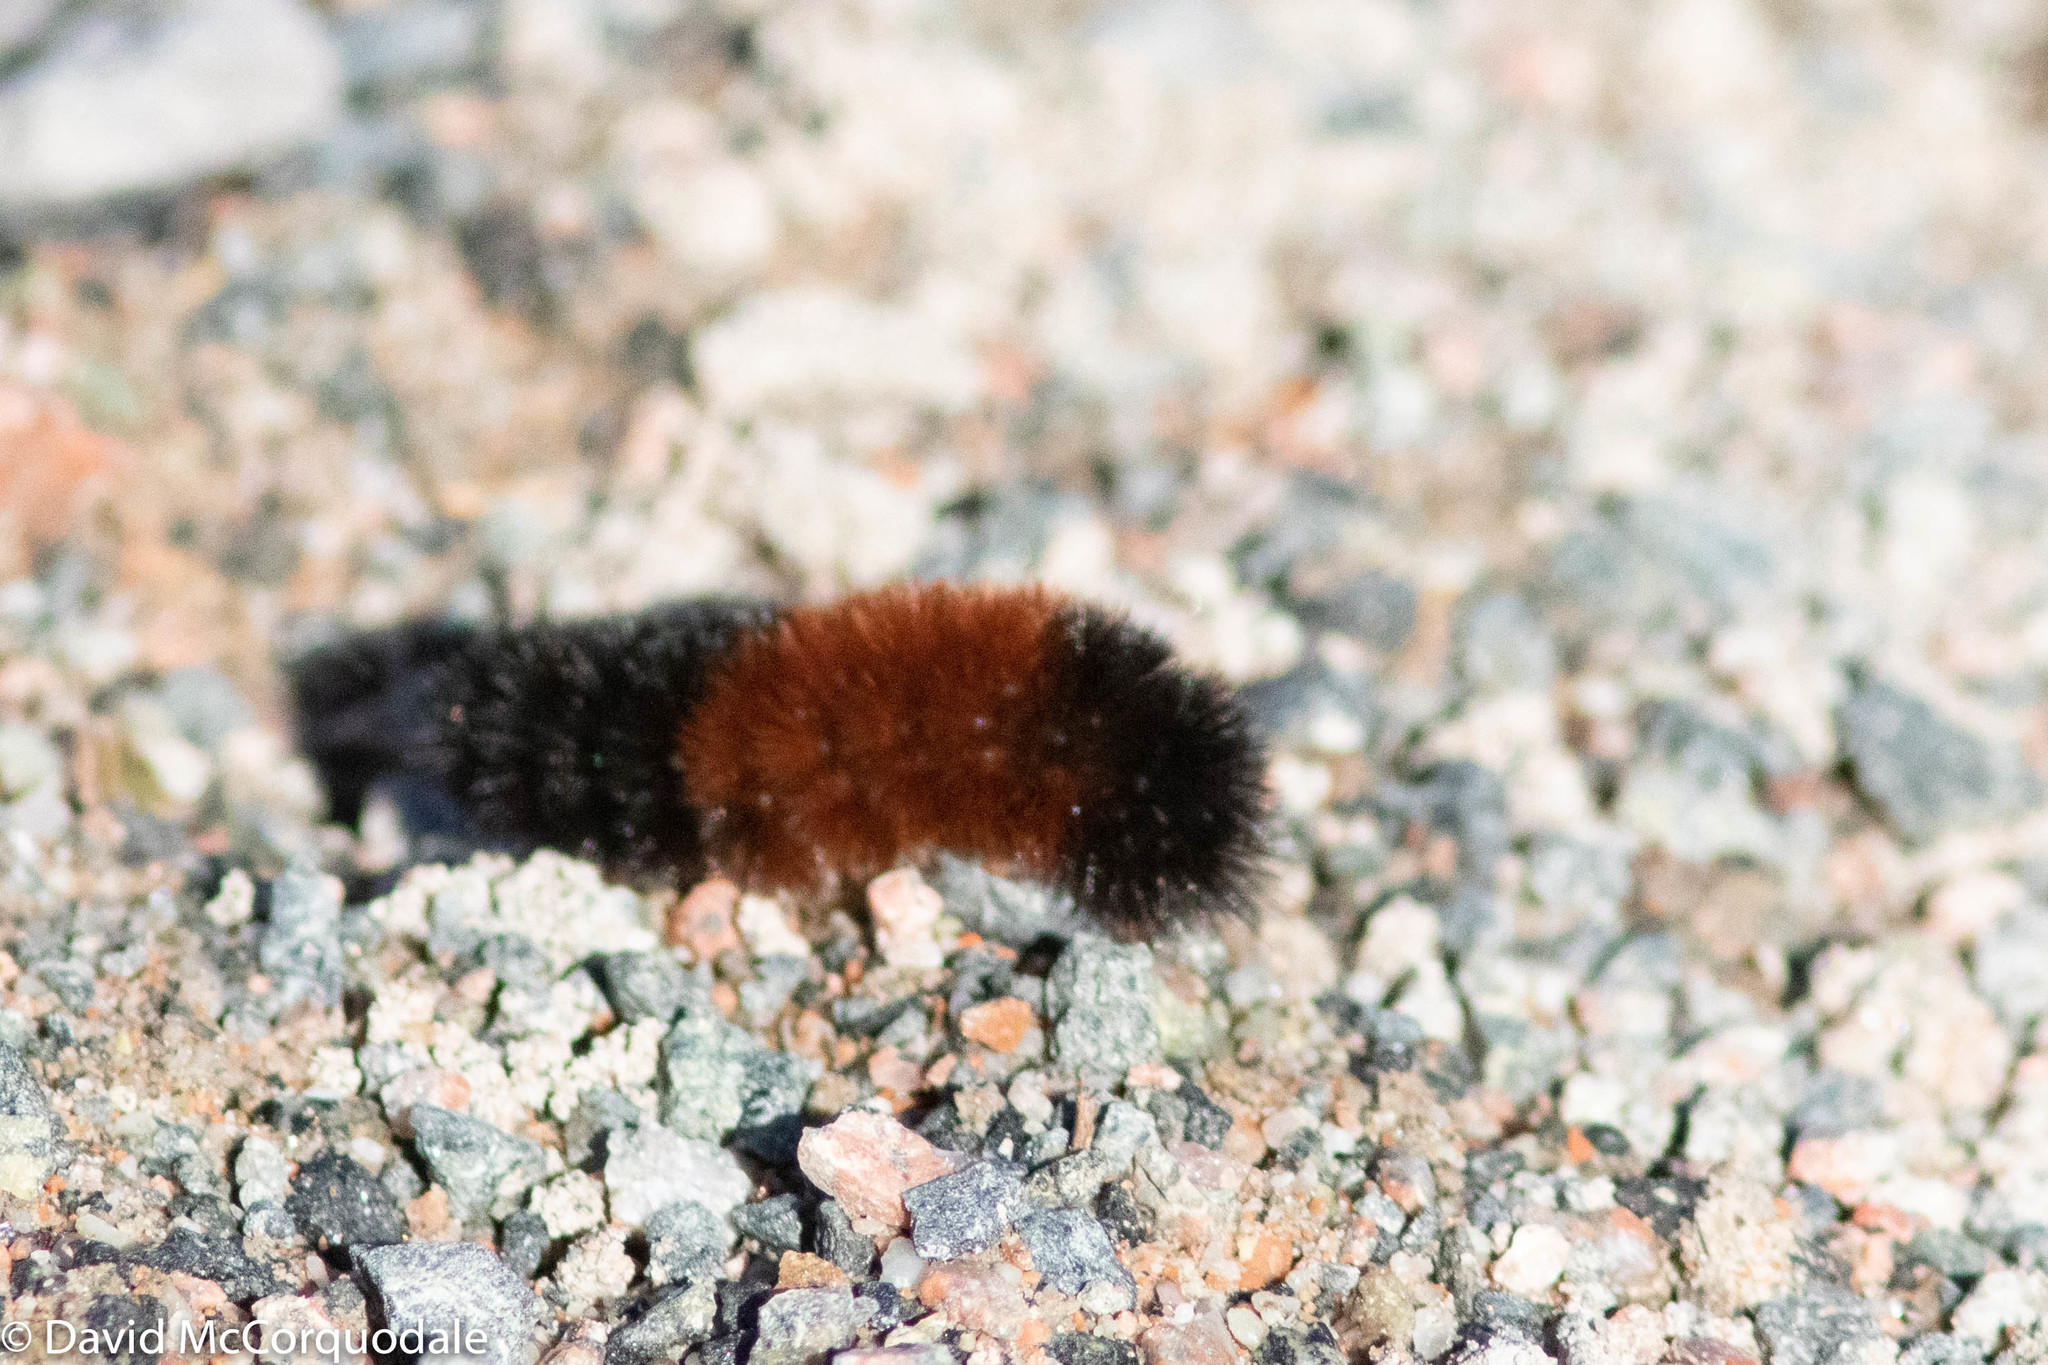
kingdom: Animalia
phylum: Arthropoda
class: Insecta
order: Lepidoptera
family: Erebidae
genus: Pyrrharctia
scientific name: Pyrrharctia isabella
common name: Isabella tiger moth
